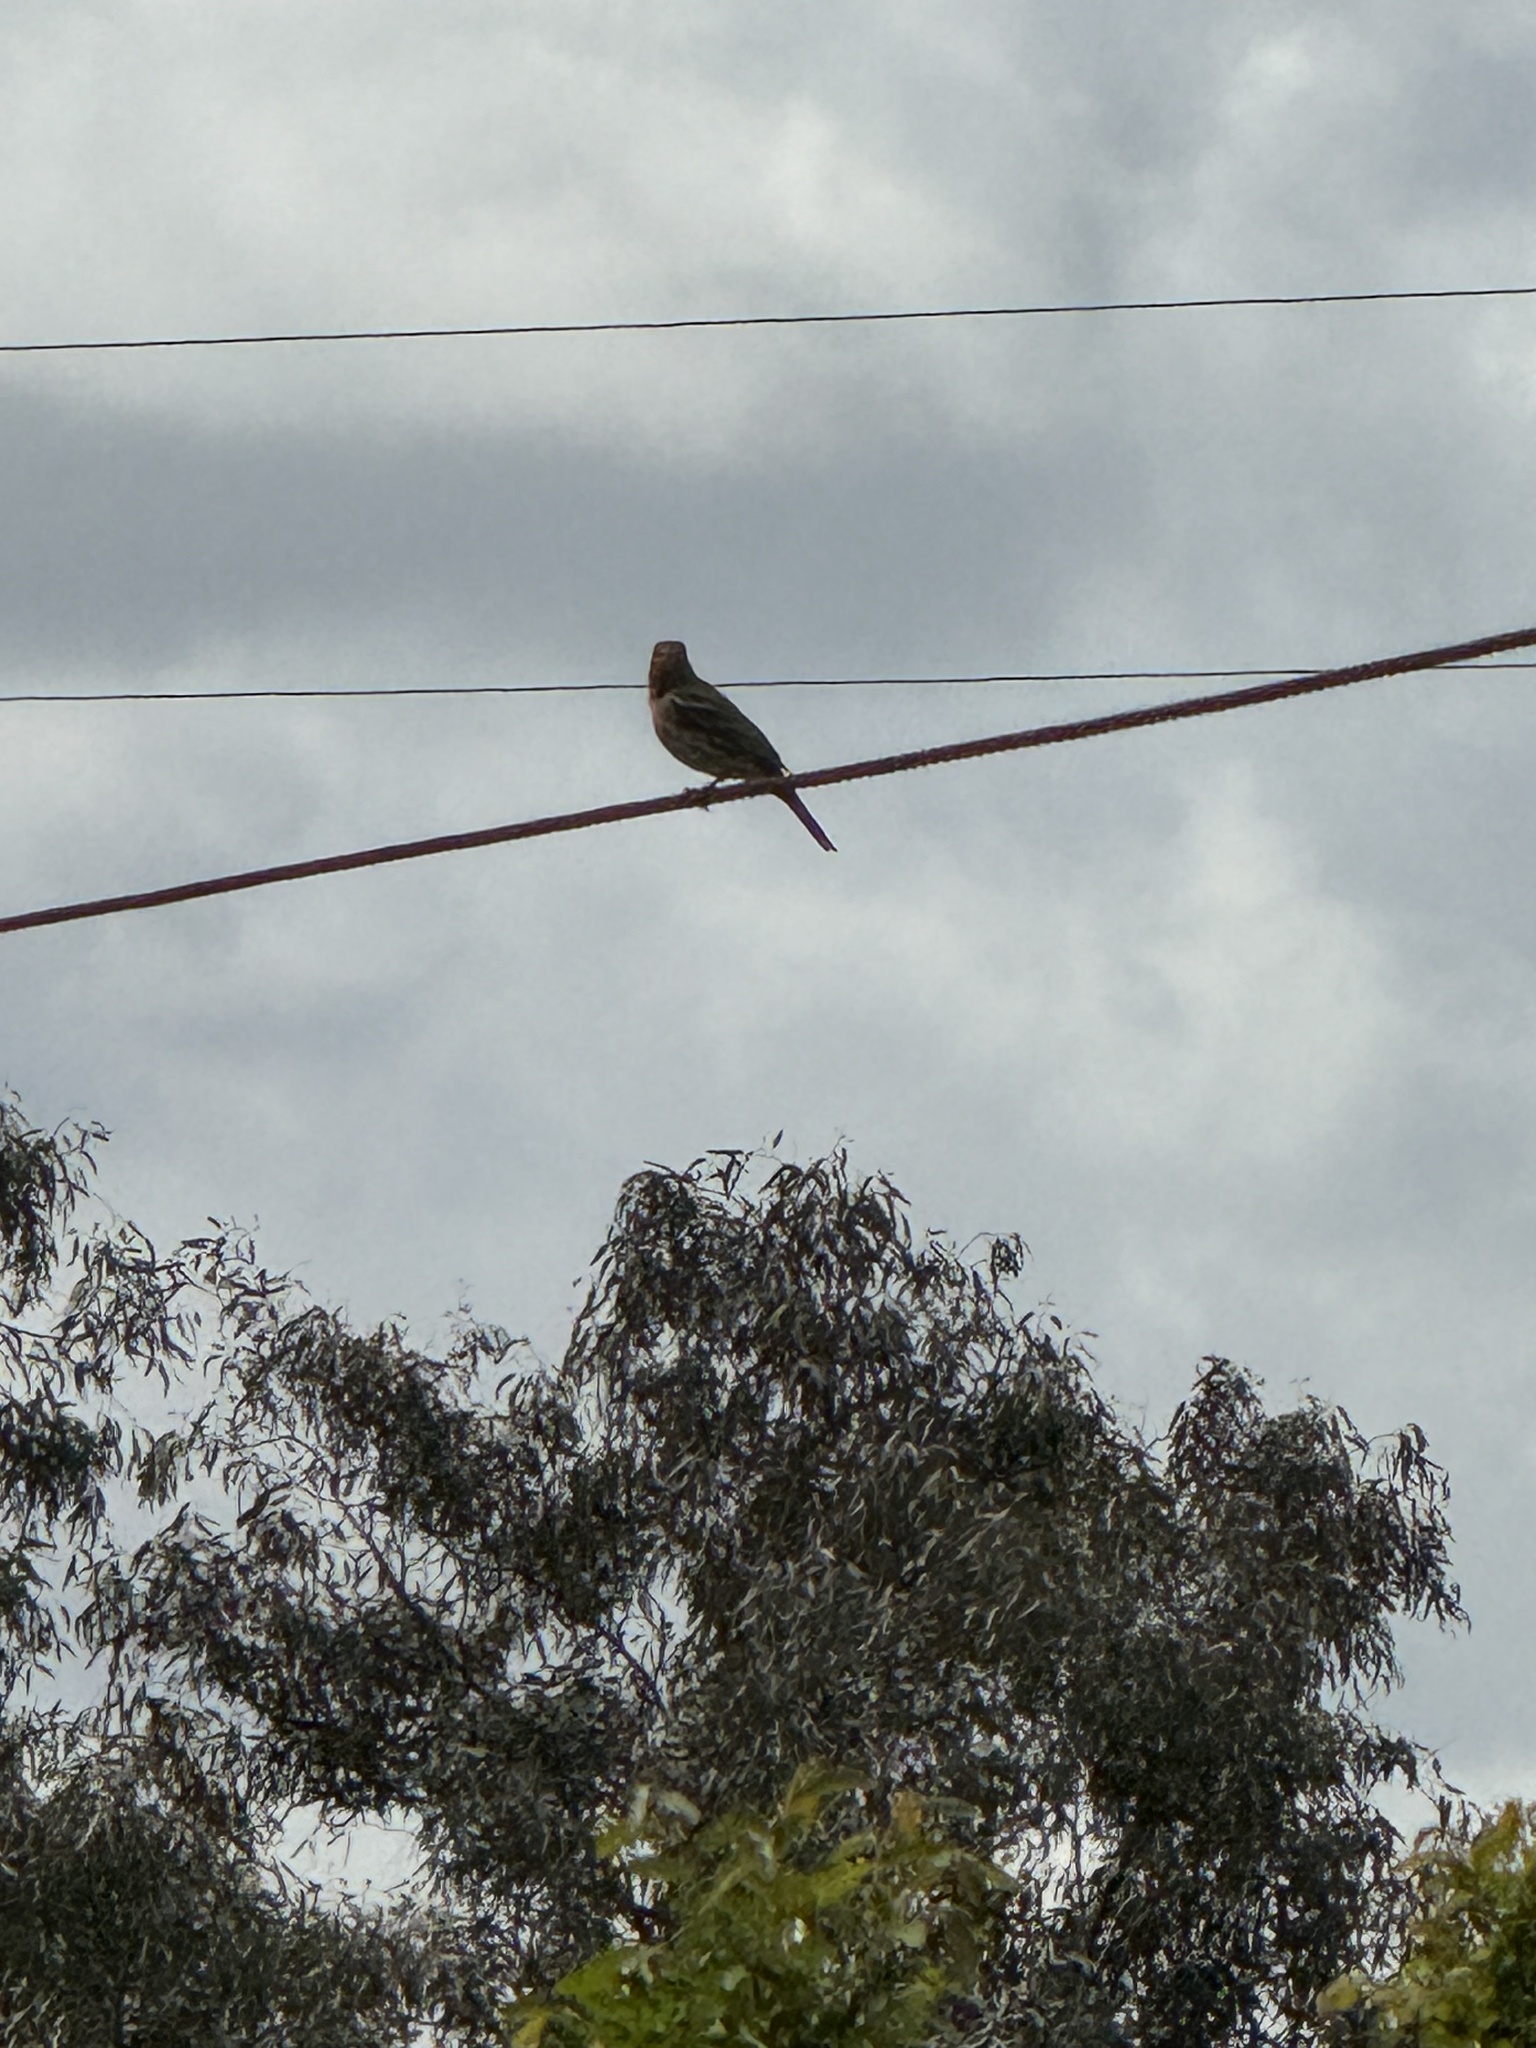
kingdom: Animalia
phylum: Chordata
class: Aves
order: Passeriformes
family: Fringillidae
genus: Haemorhous
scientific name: Haemorhous mexicanus
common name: House finch
